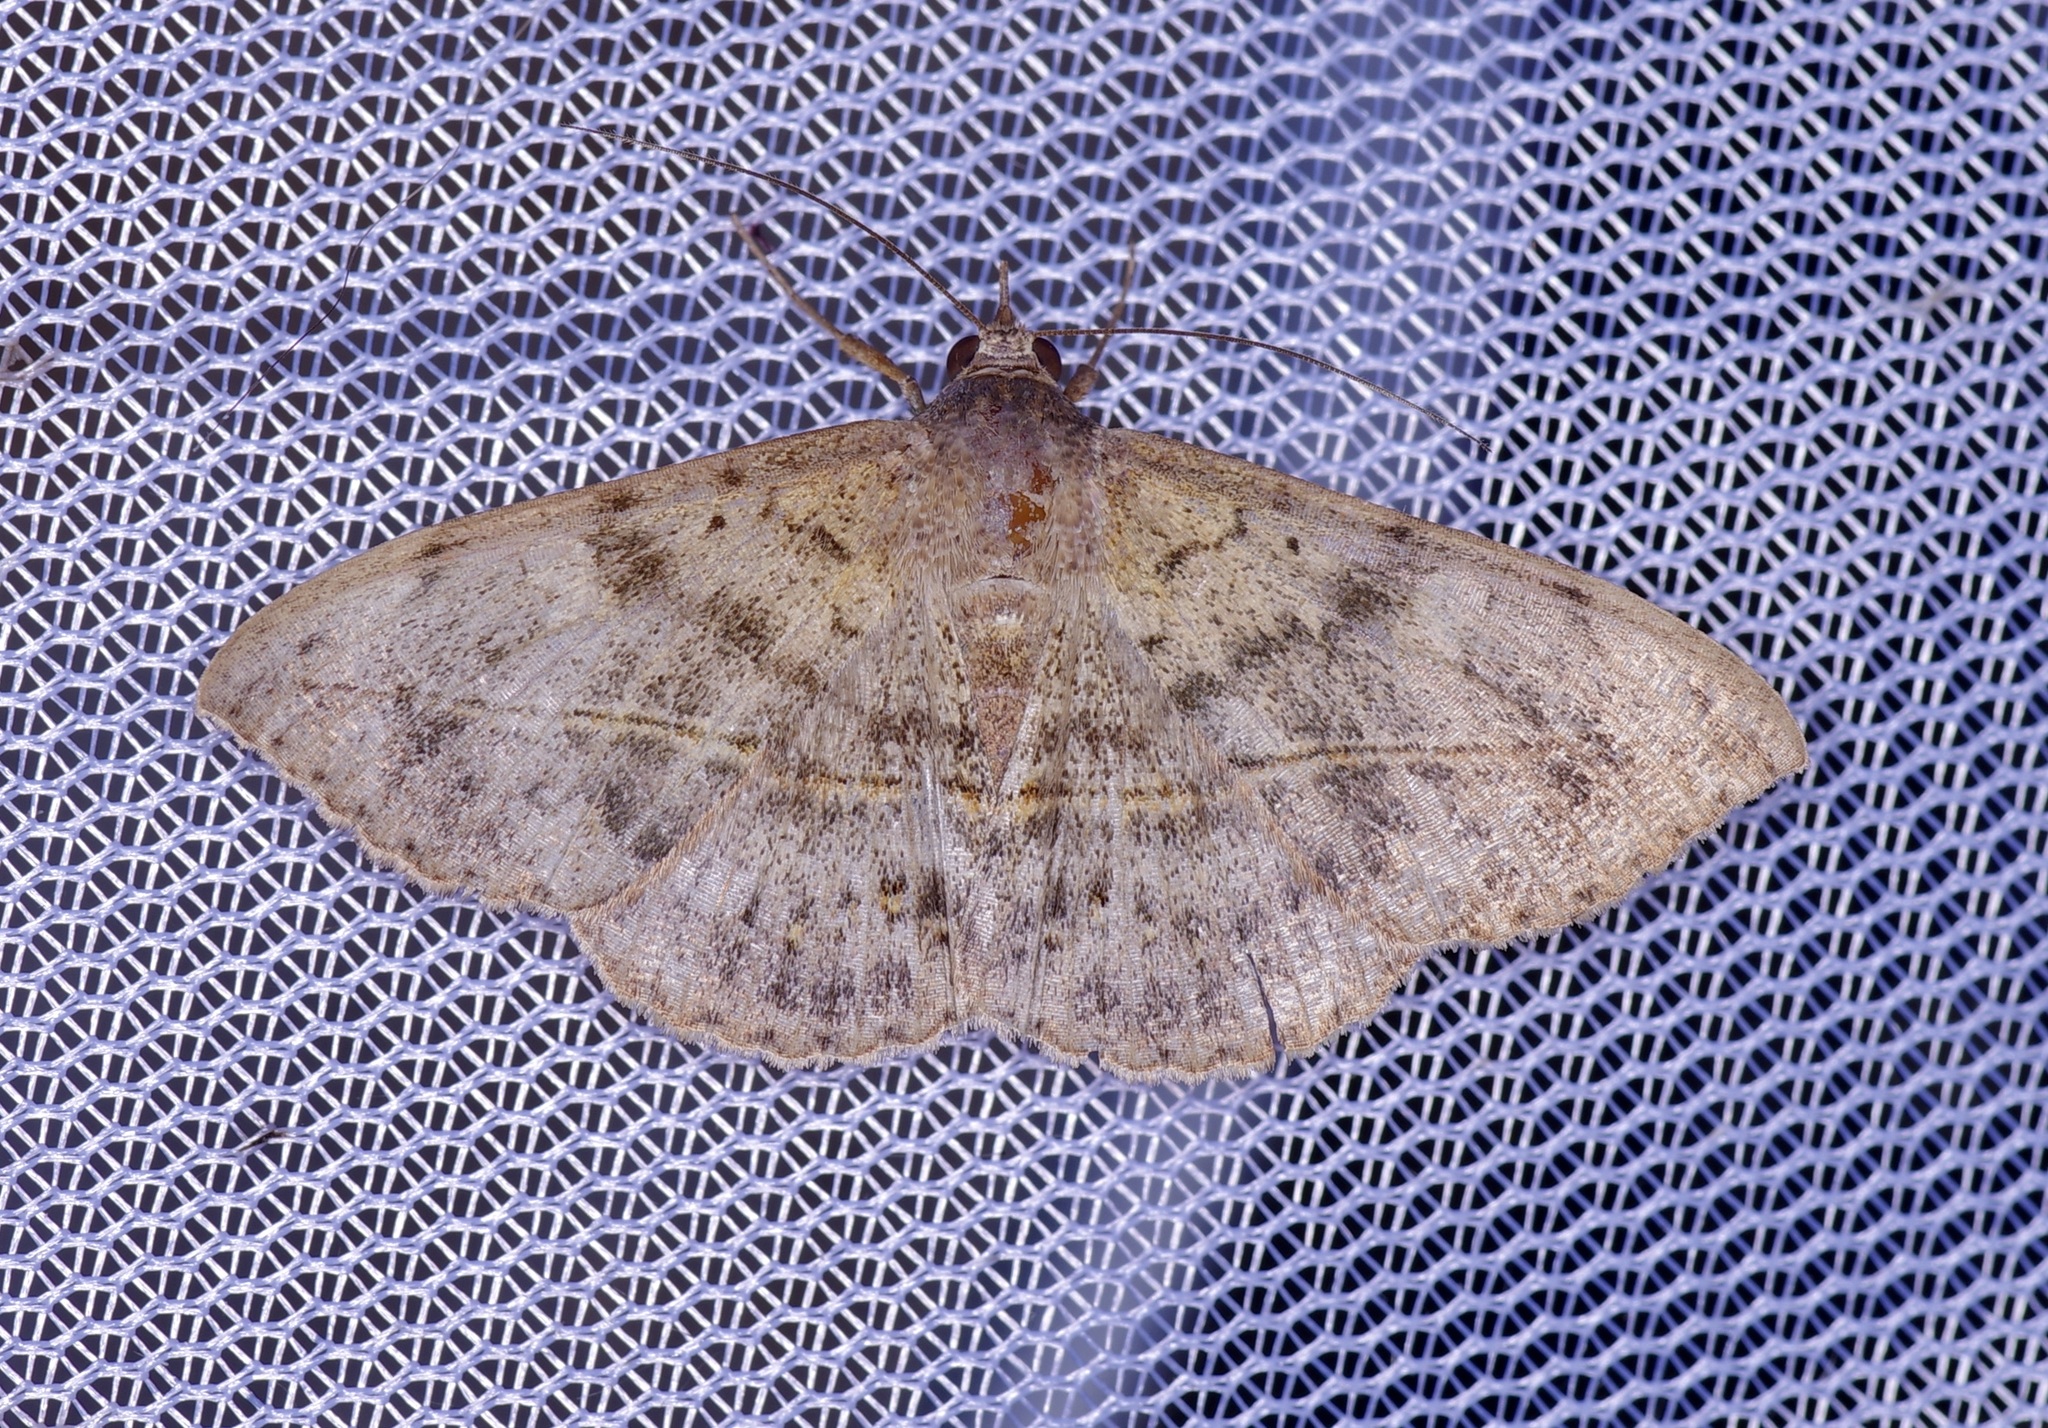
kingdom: Animalia
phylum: Arthropoda
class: Insecta
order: Lepidoptera
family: Erebidae
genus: Anticarsia
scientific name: Anticarsia gemmatalis
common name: Cutworm moth
